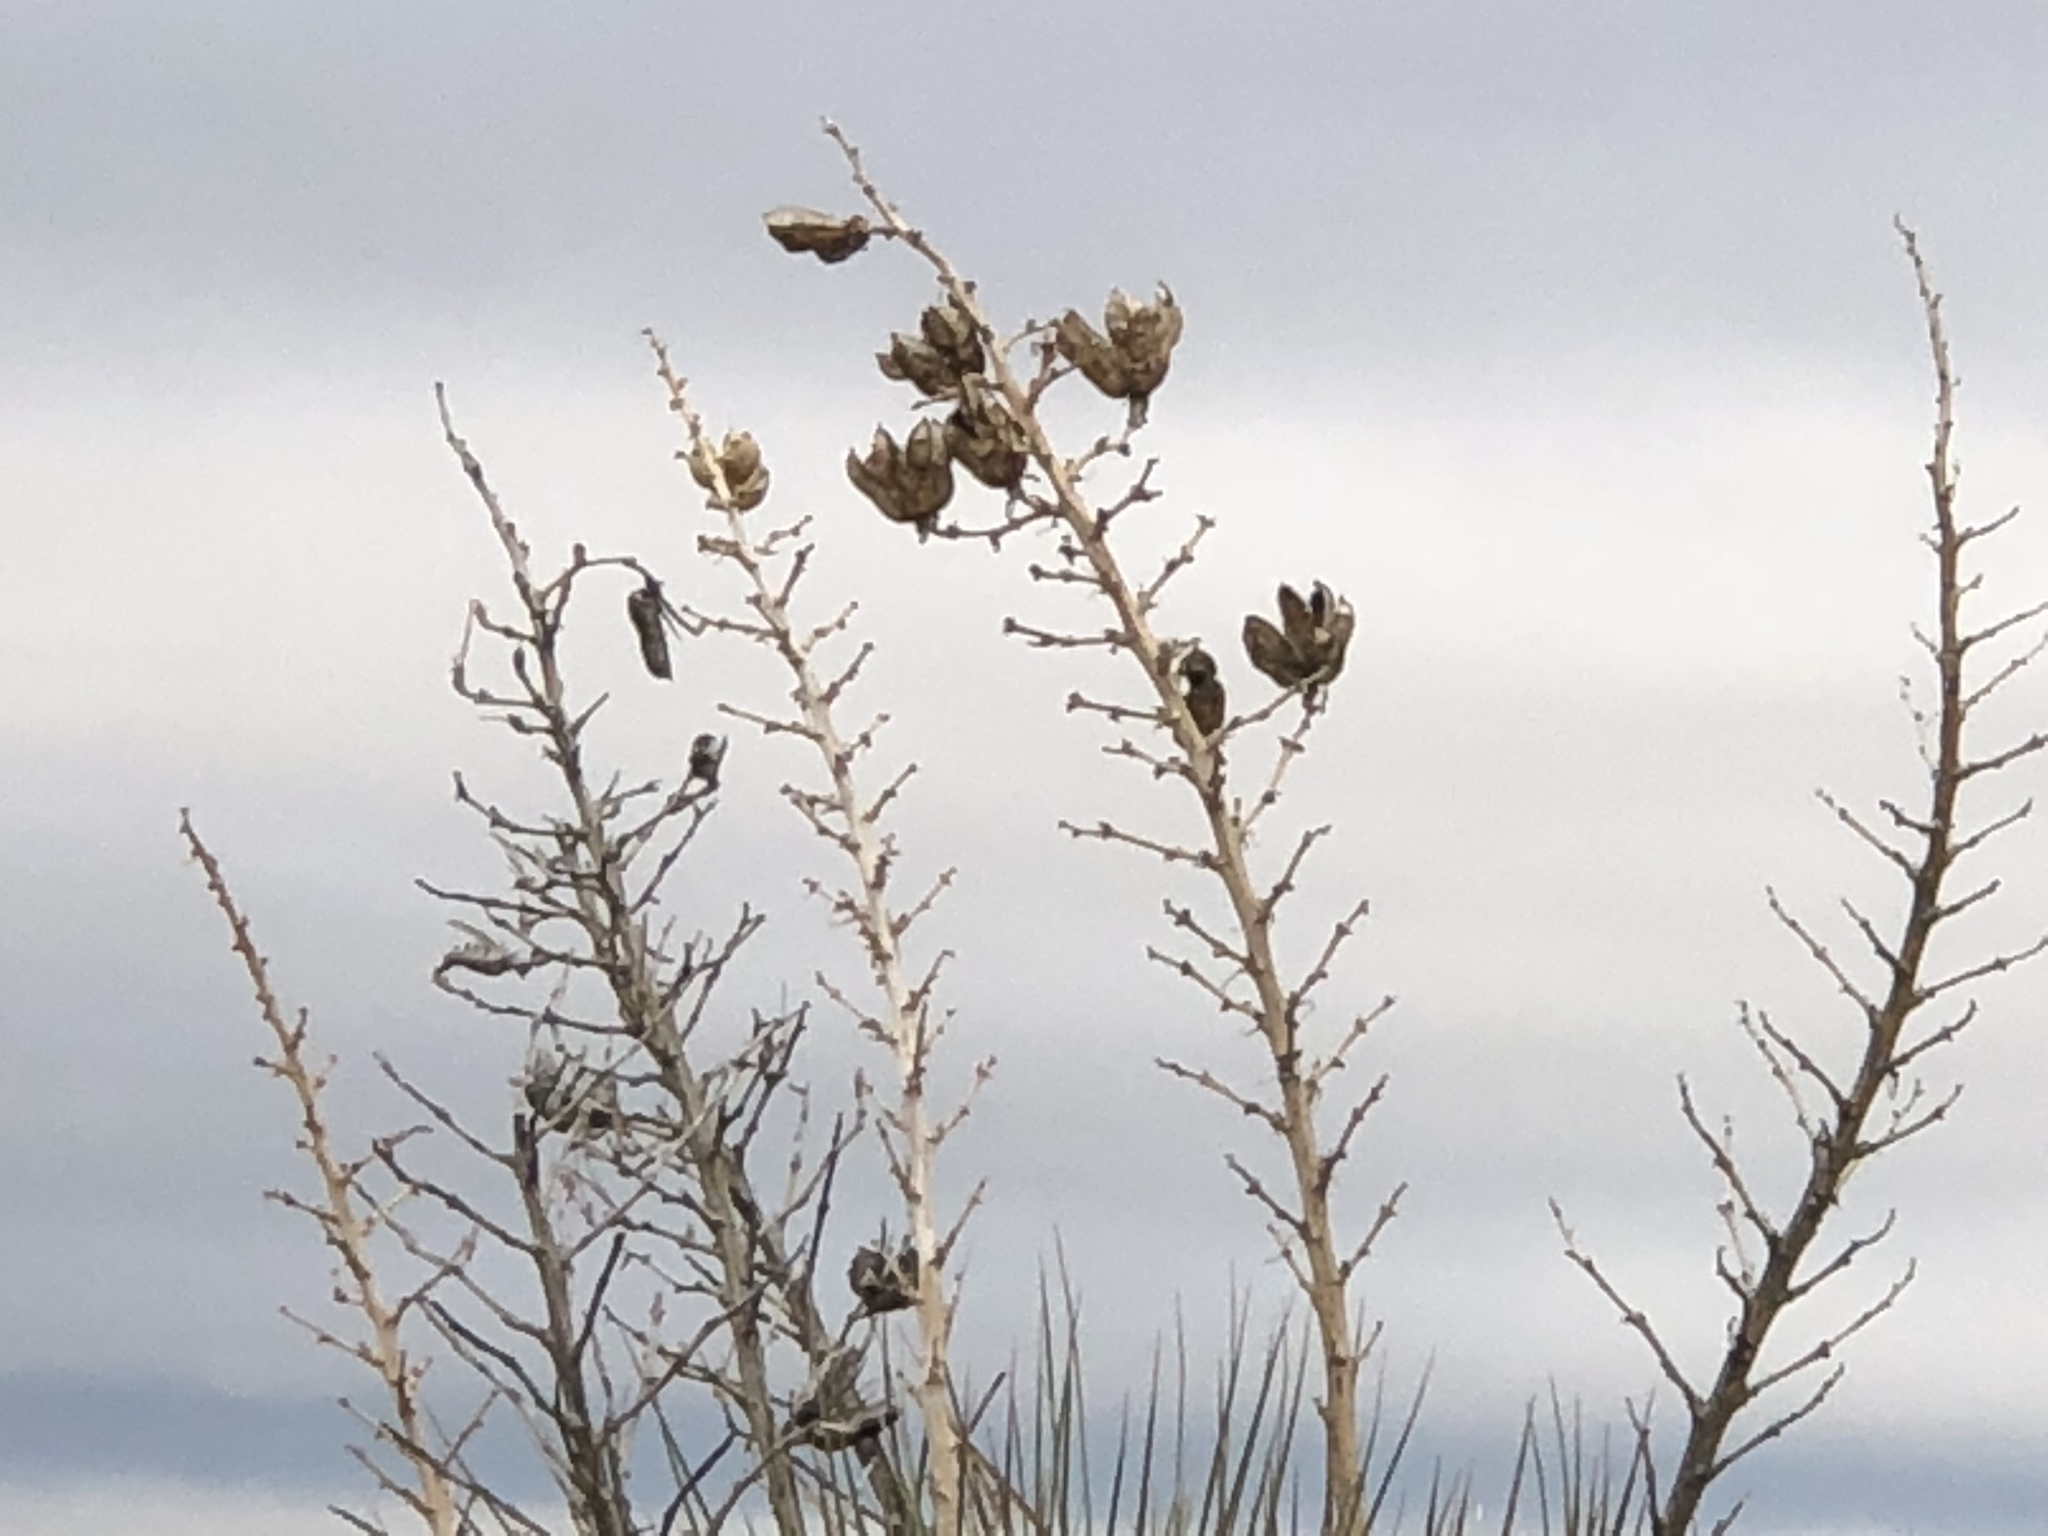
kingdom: Plantae
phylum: Tracheophyta
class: Liliopsida
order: Asparagales
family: Asparagaceae
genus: Yucca
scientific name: Yucca elata
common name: Palmella
